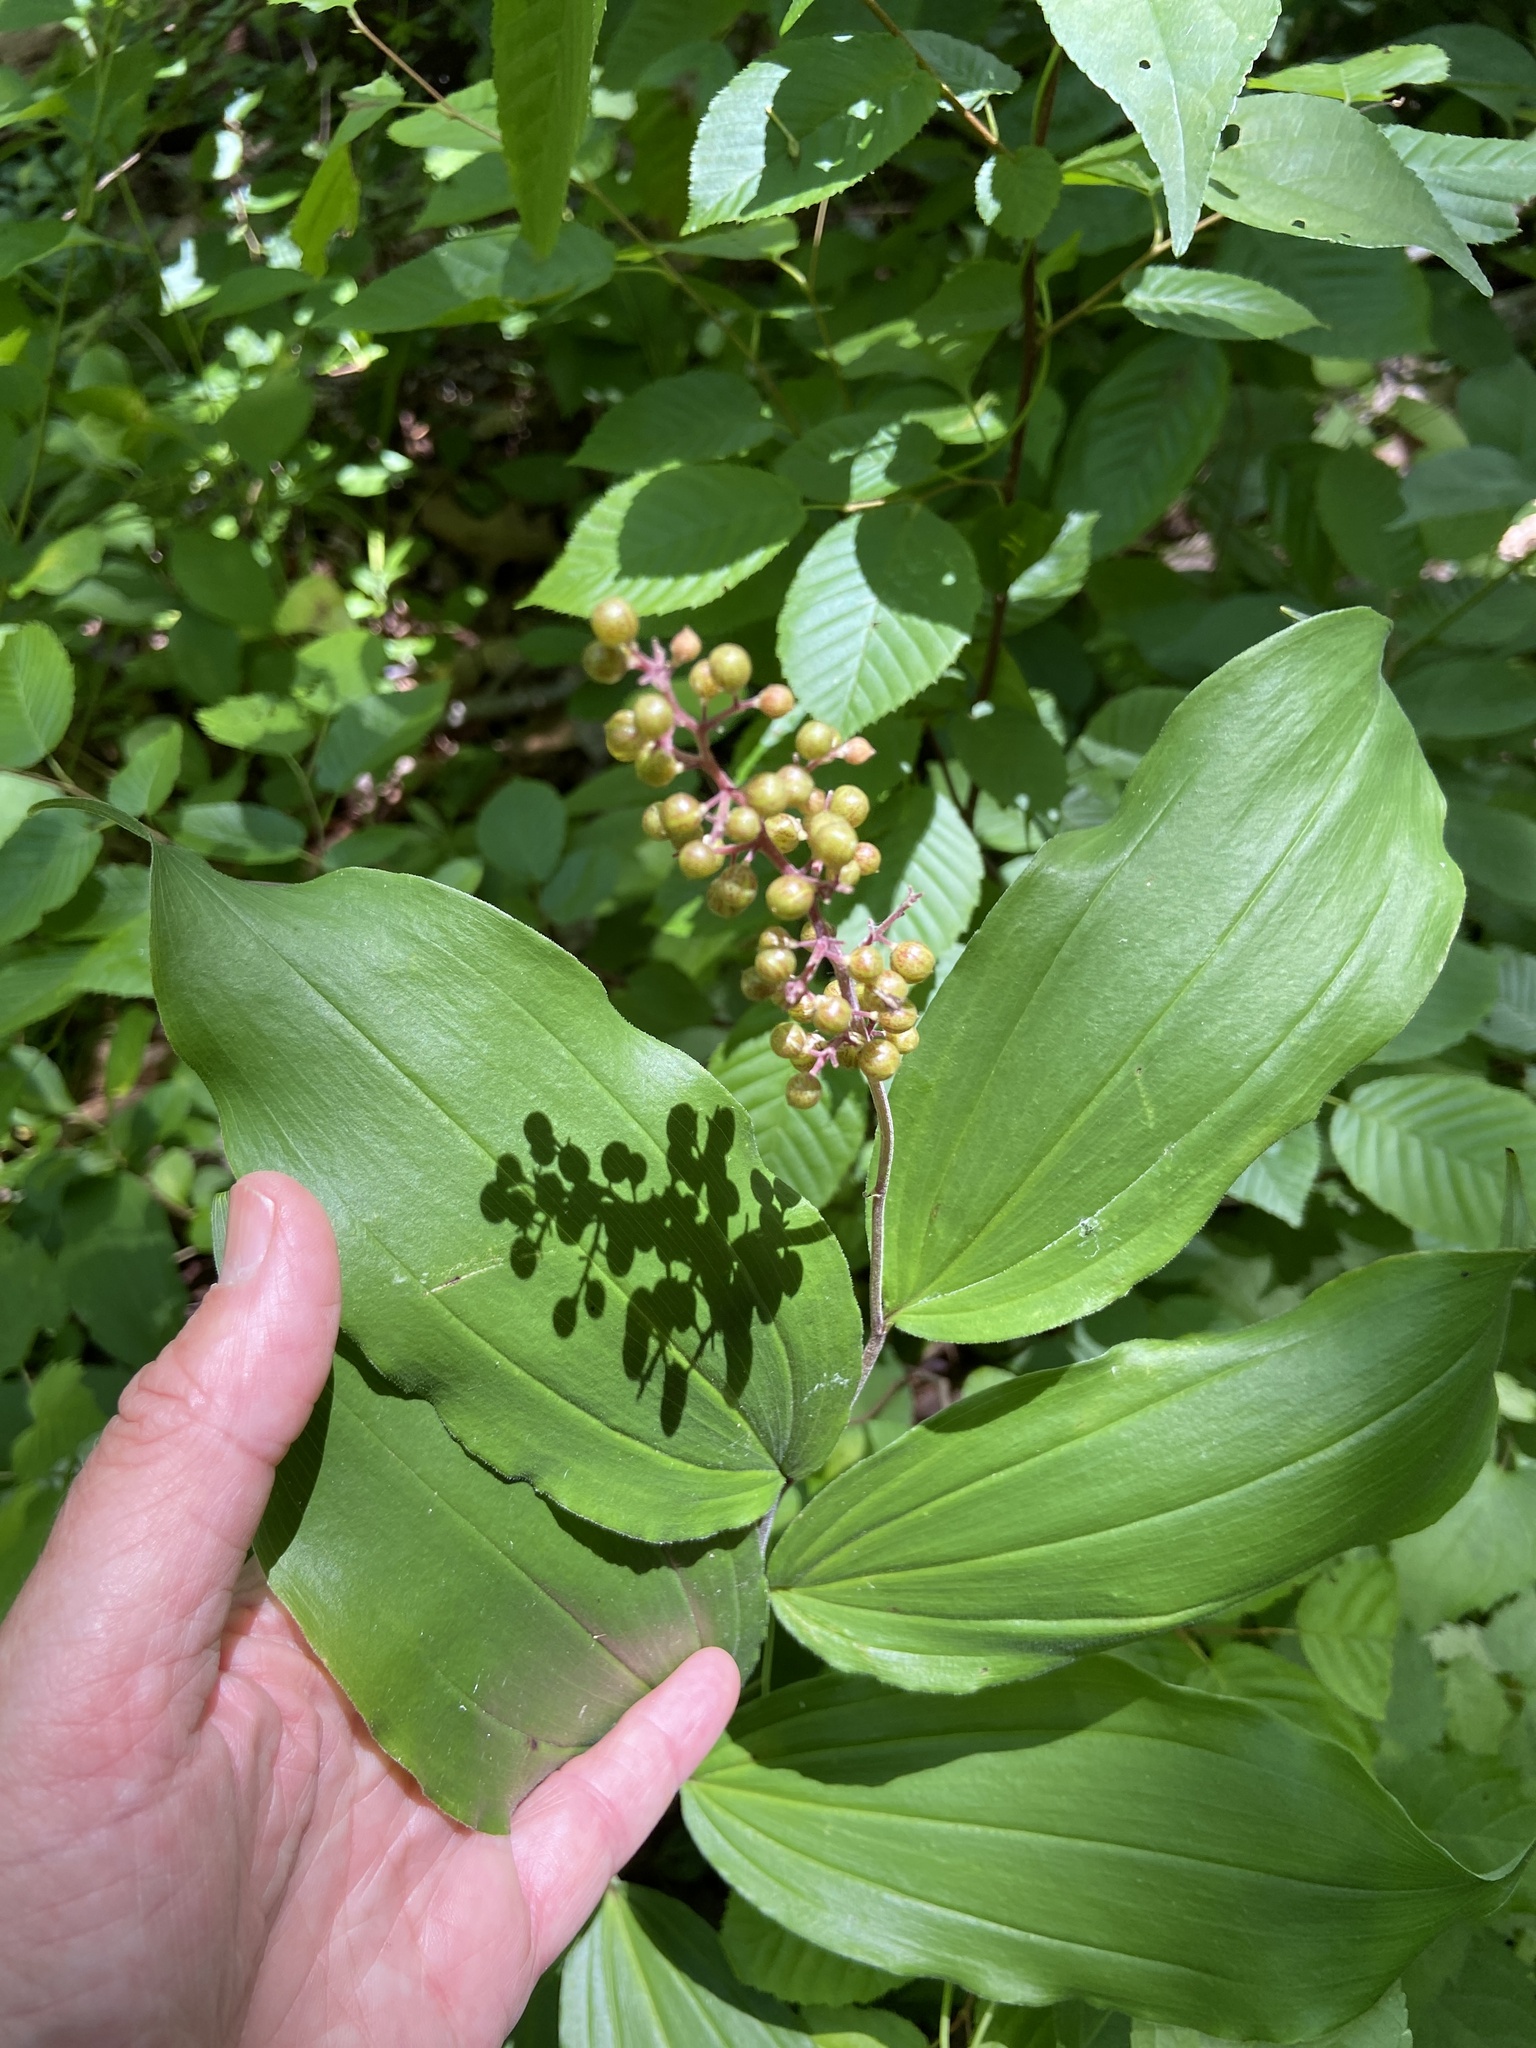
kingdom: Plantae
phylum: Tracheophyta
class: Liliopsida
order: Asparagales
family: Asparagaceae
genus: Maianthemum
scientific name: Maianthemum racemosum
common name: False spikenard
